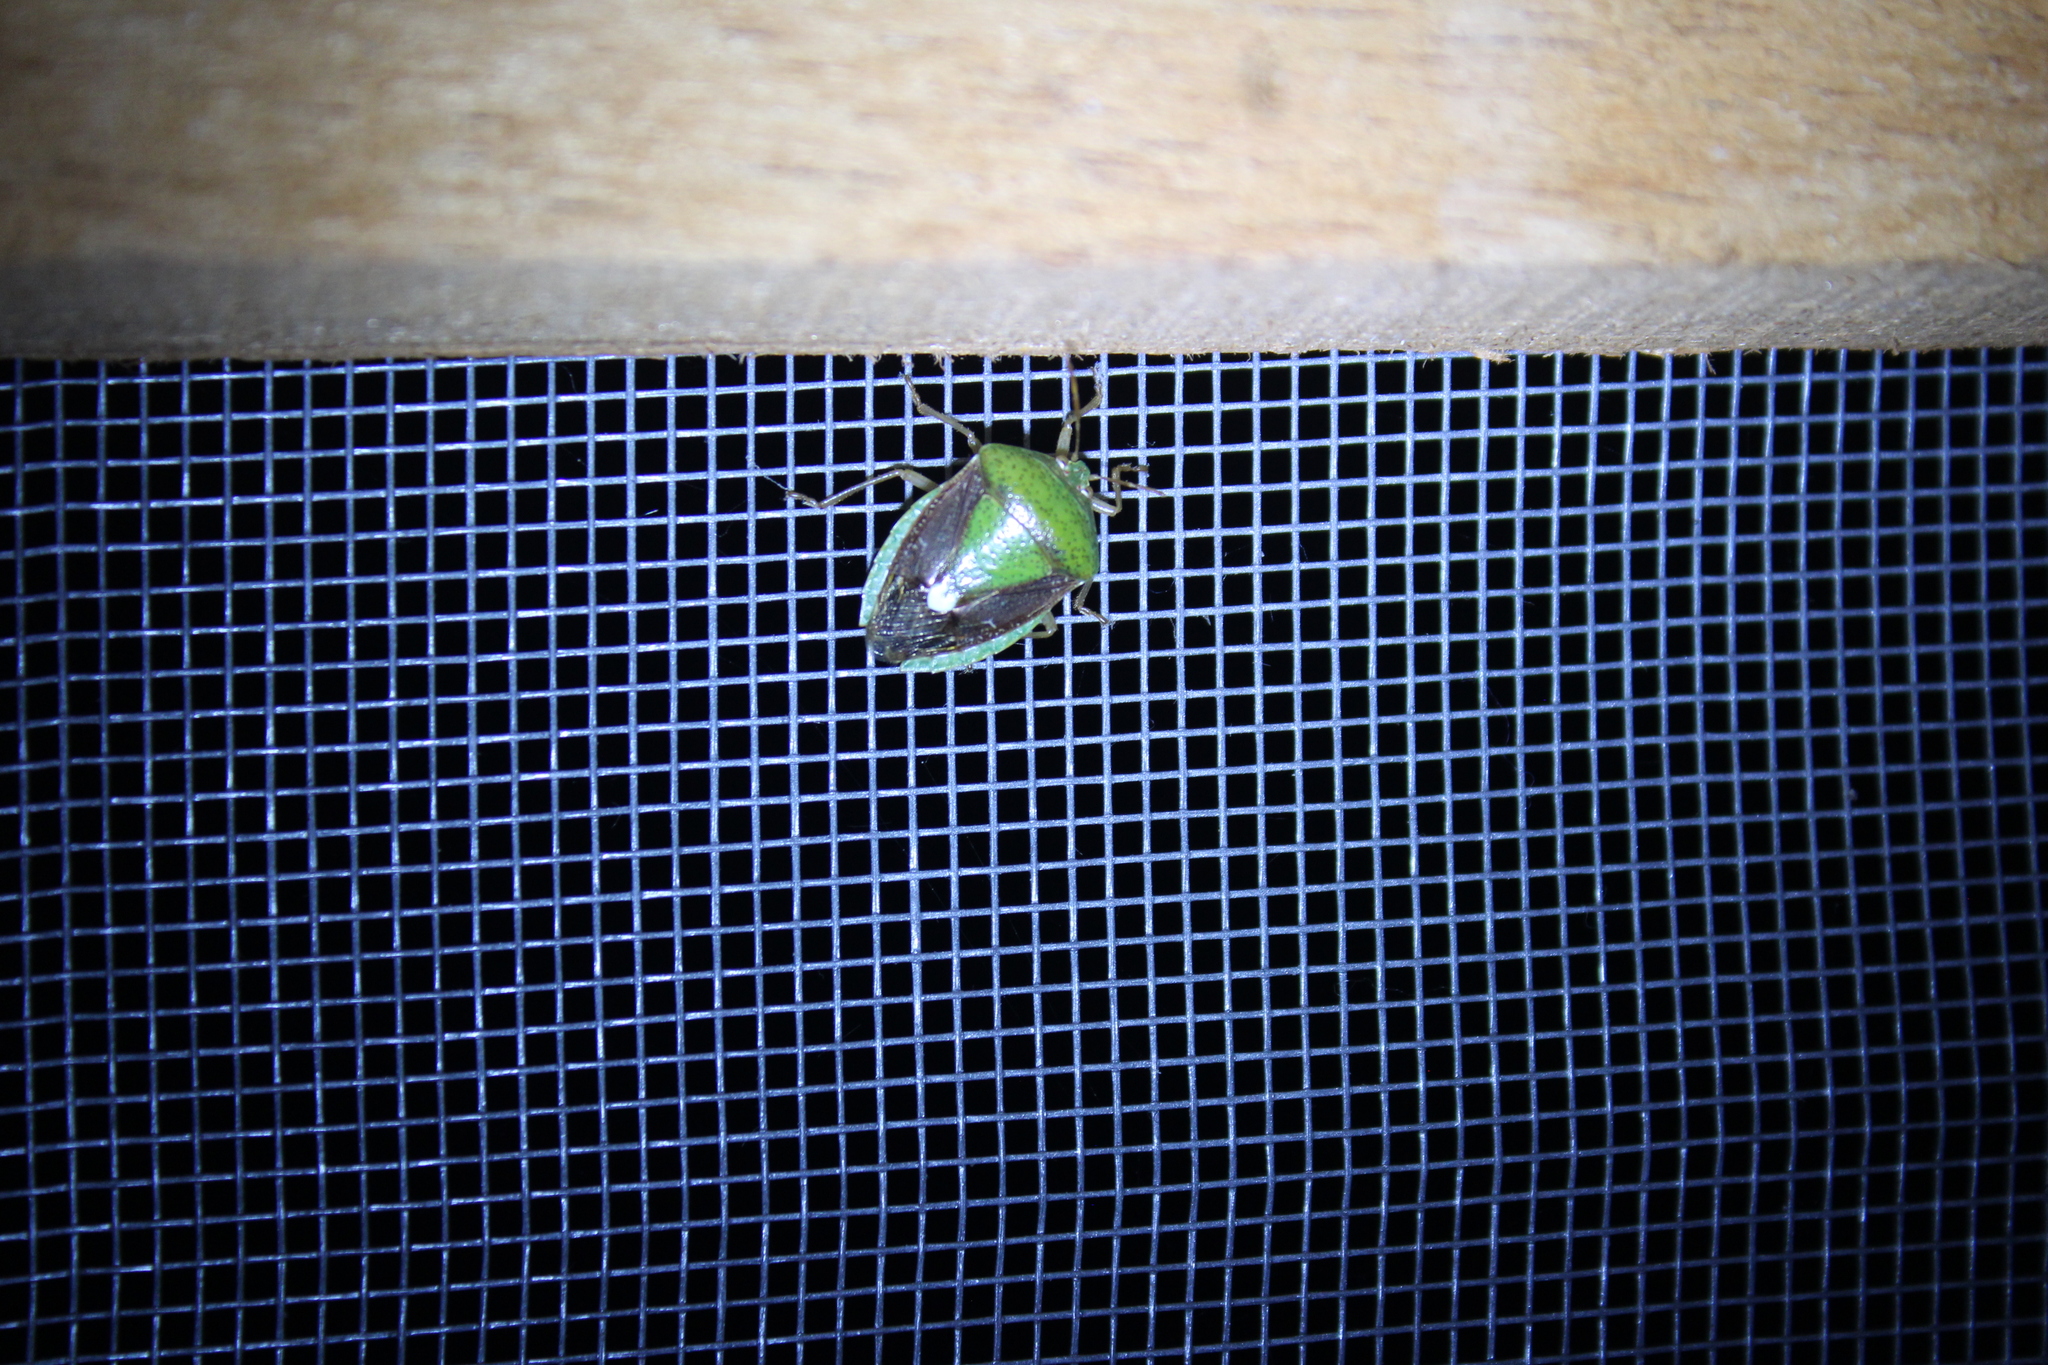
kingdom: Animalia
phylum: Arthropoda
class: Insecta
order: Hemiptera
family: Pentatomidae
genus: Edessa
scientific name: Edessa bifida
